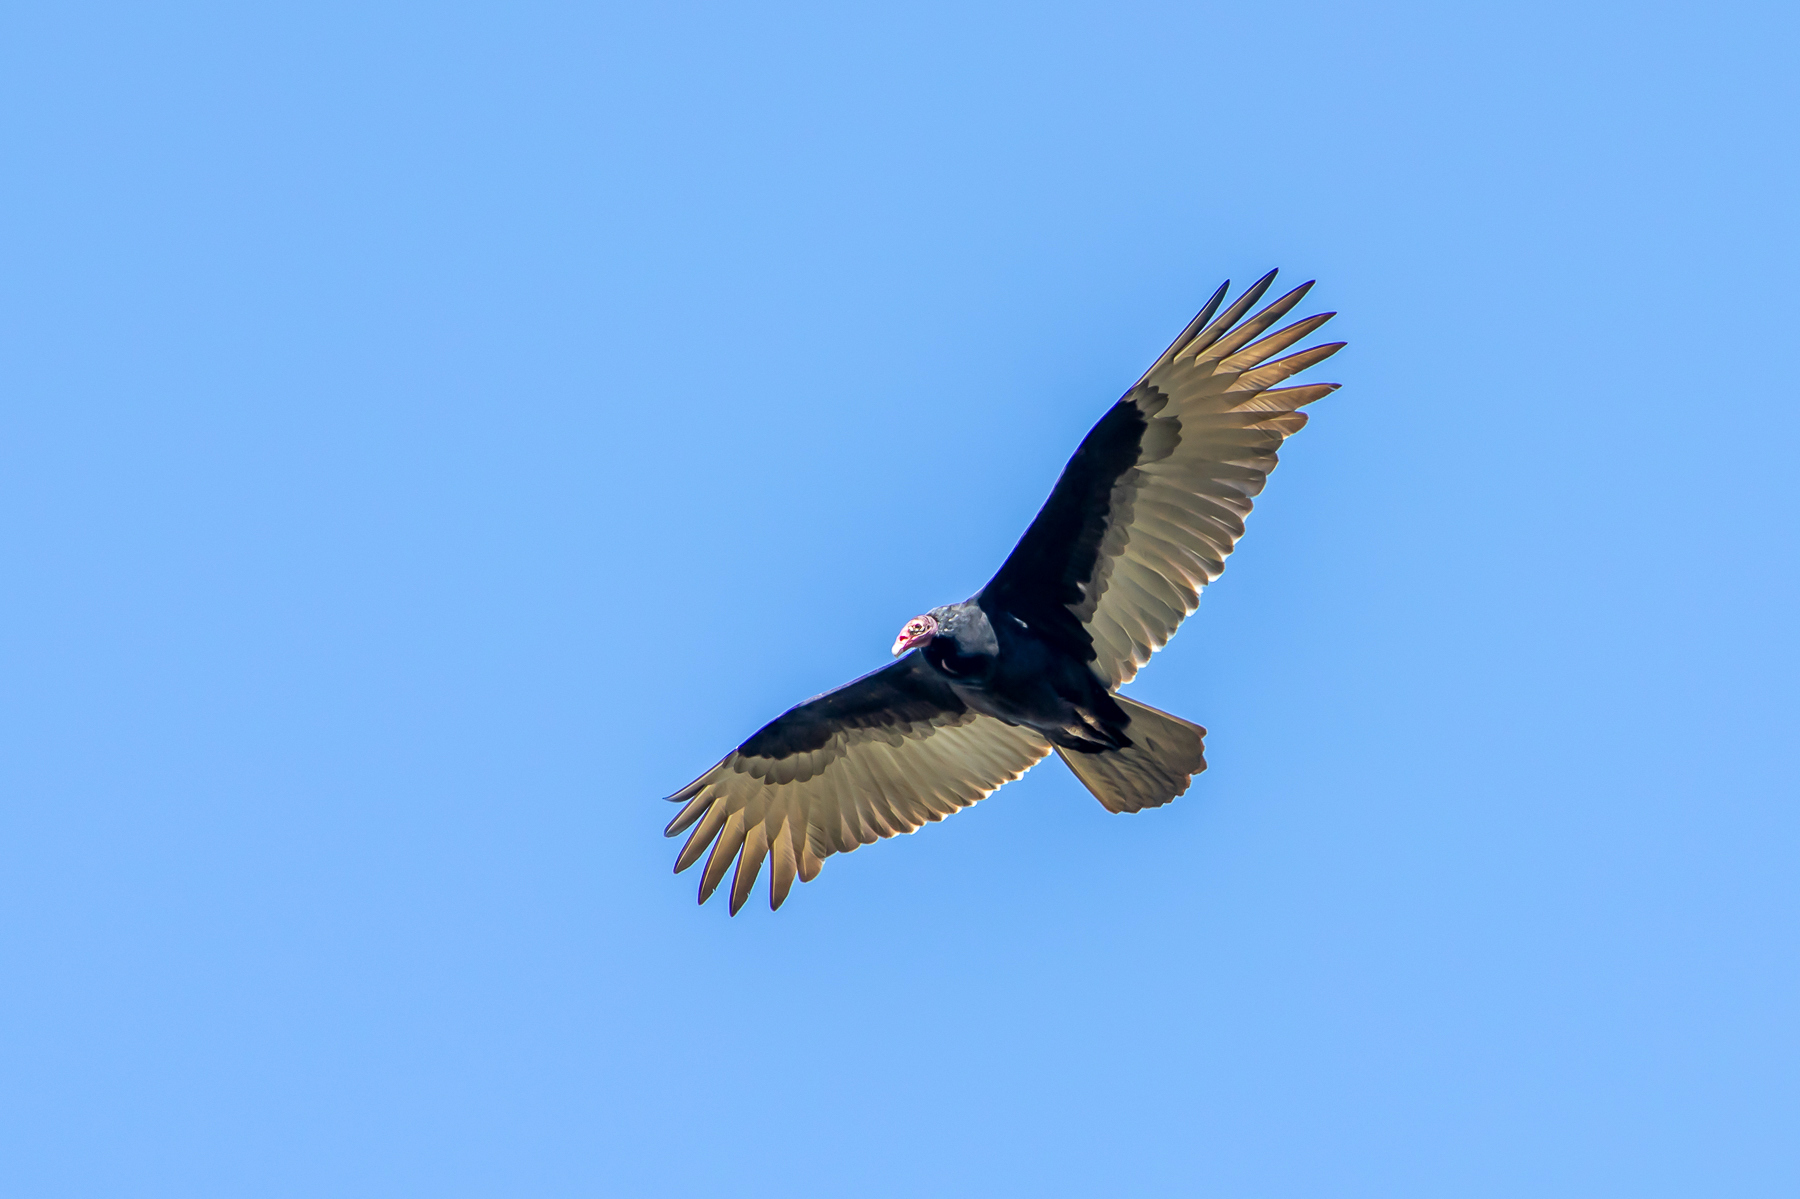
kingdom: Animalia
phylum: Chordata
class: Aves
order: Accipitriformes
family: Cathartidae
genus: Cathartes
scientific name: Cathartes aura
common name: Turkey vulture
